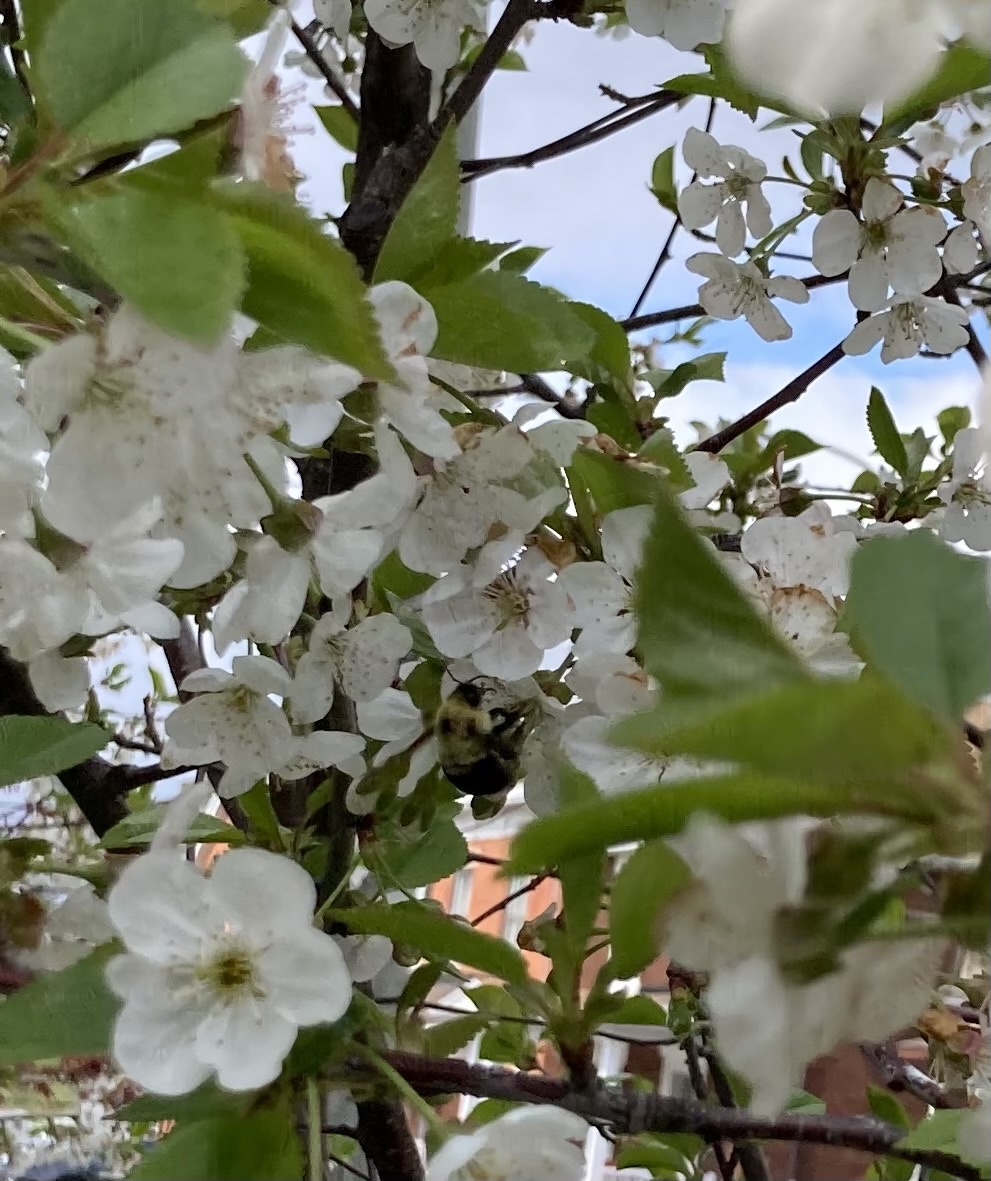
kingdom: Animalia
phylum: Arthropoda
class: Insecta
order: Hymenoptera
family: Apidae
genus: Bombus
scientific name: Bombus bimaculatus
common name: Two-spotted bumble bee
